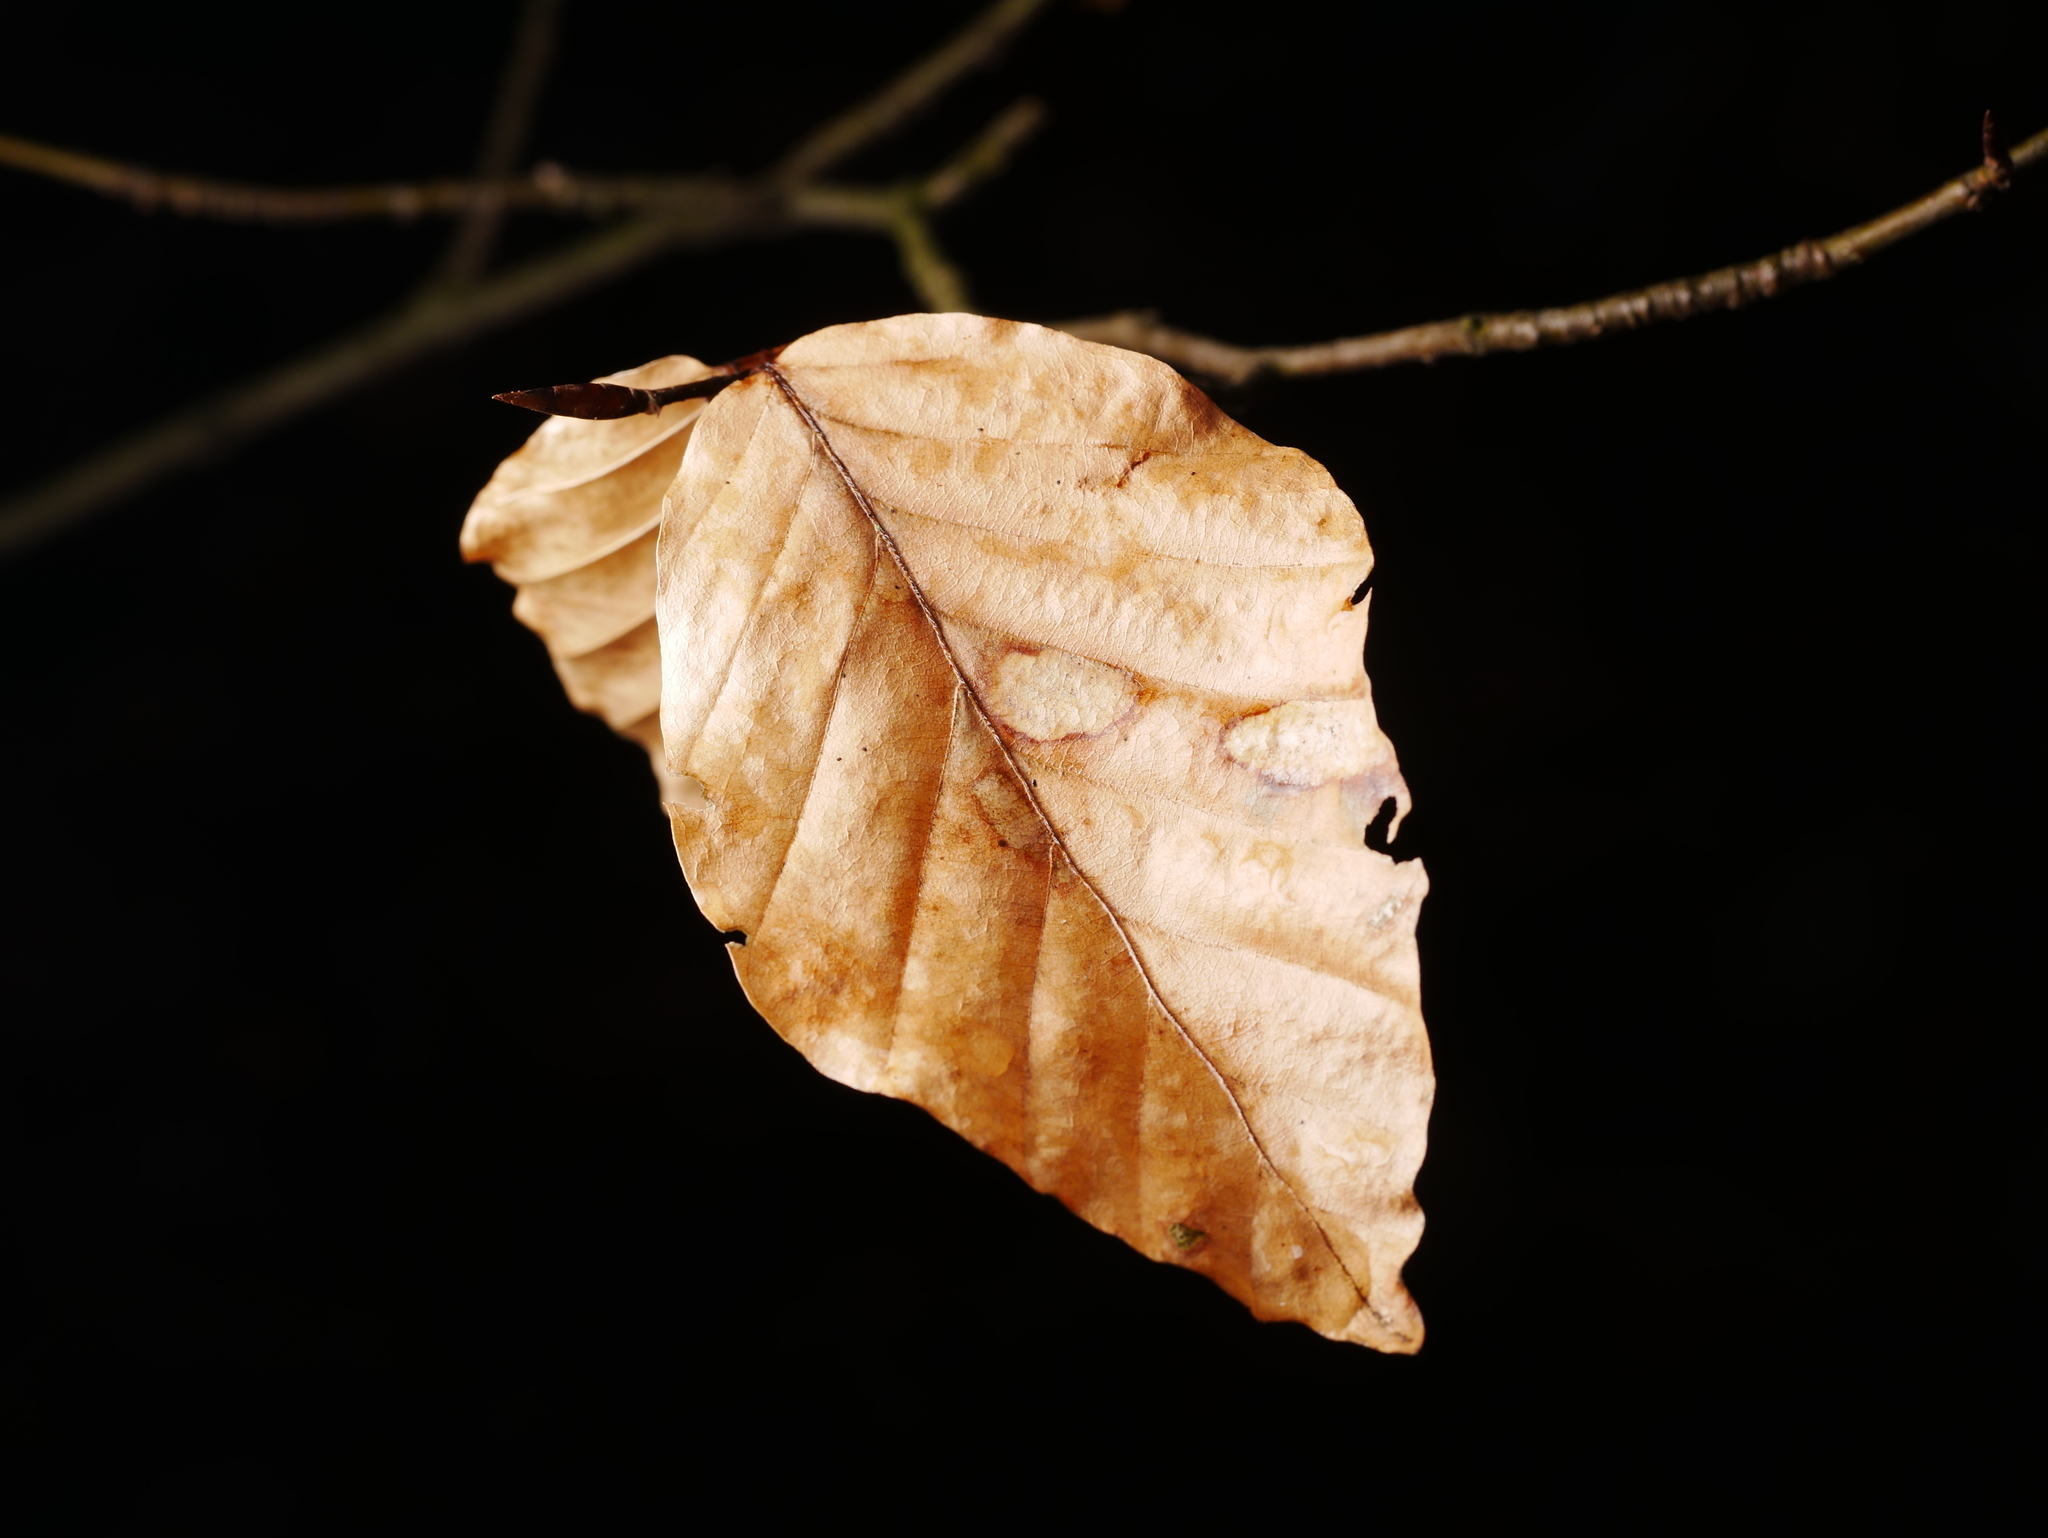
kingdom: Plantae
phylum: Tracheophyta
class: Magnoliopsida
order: Fagales
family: Fagaceae
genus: Fagus
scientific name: Fagus sylvatica
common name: Beech
